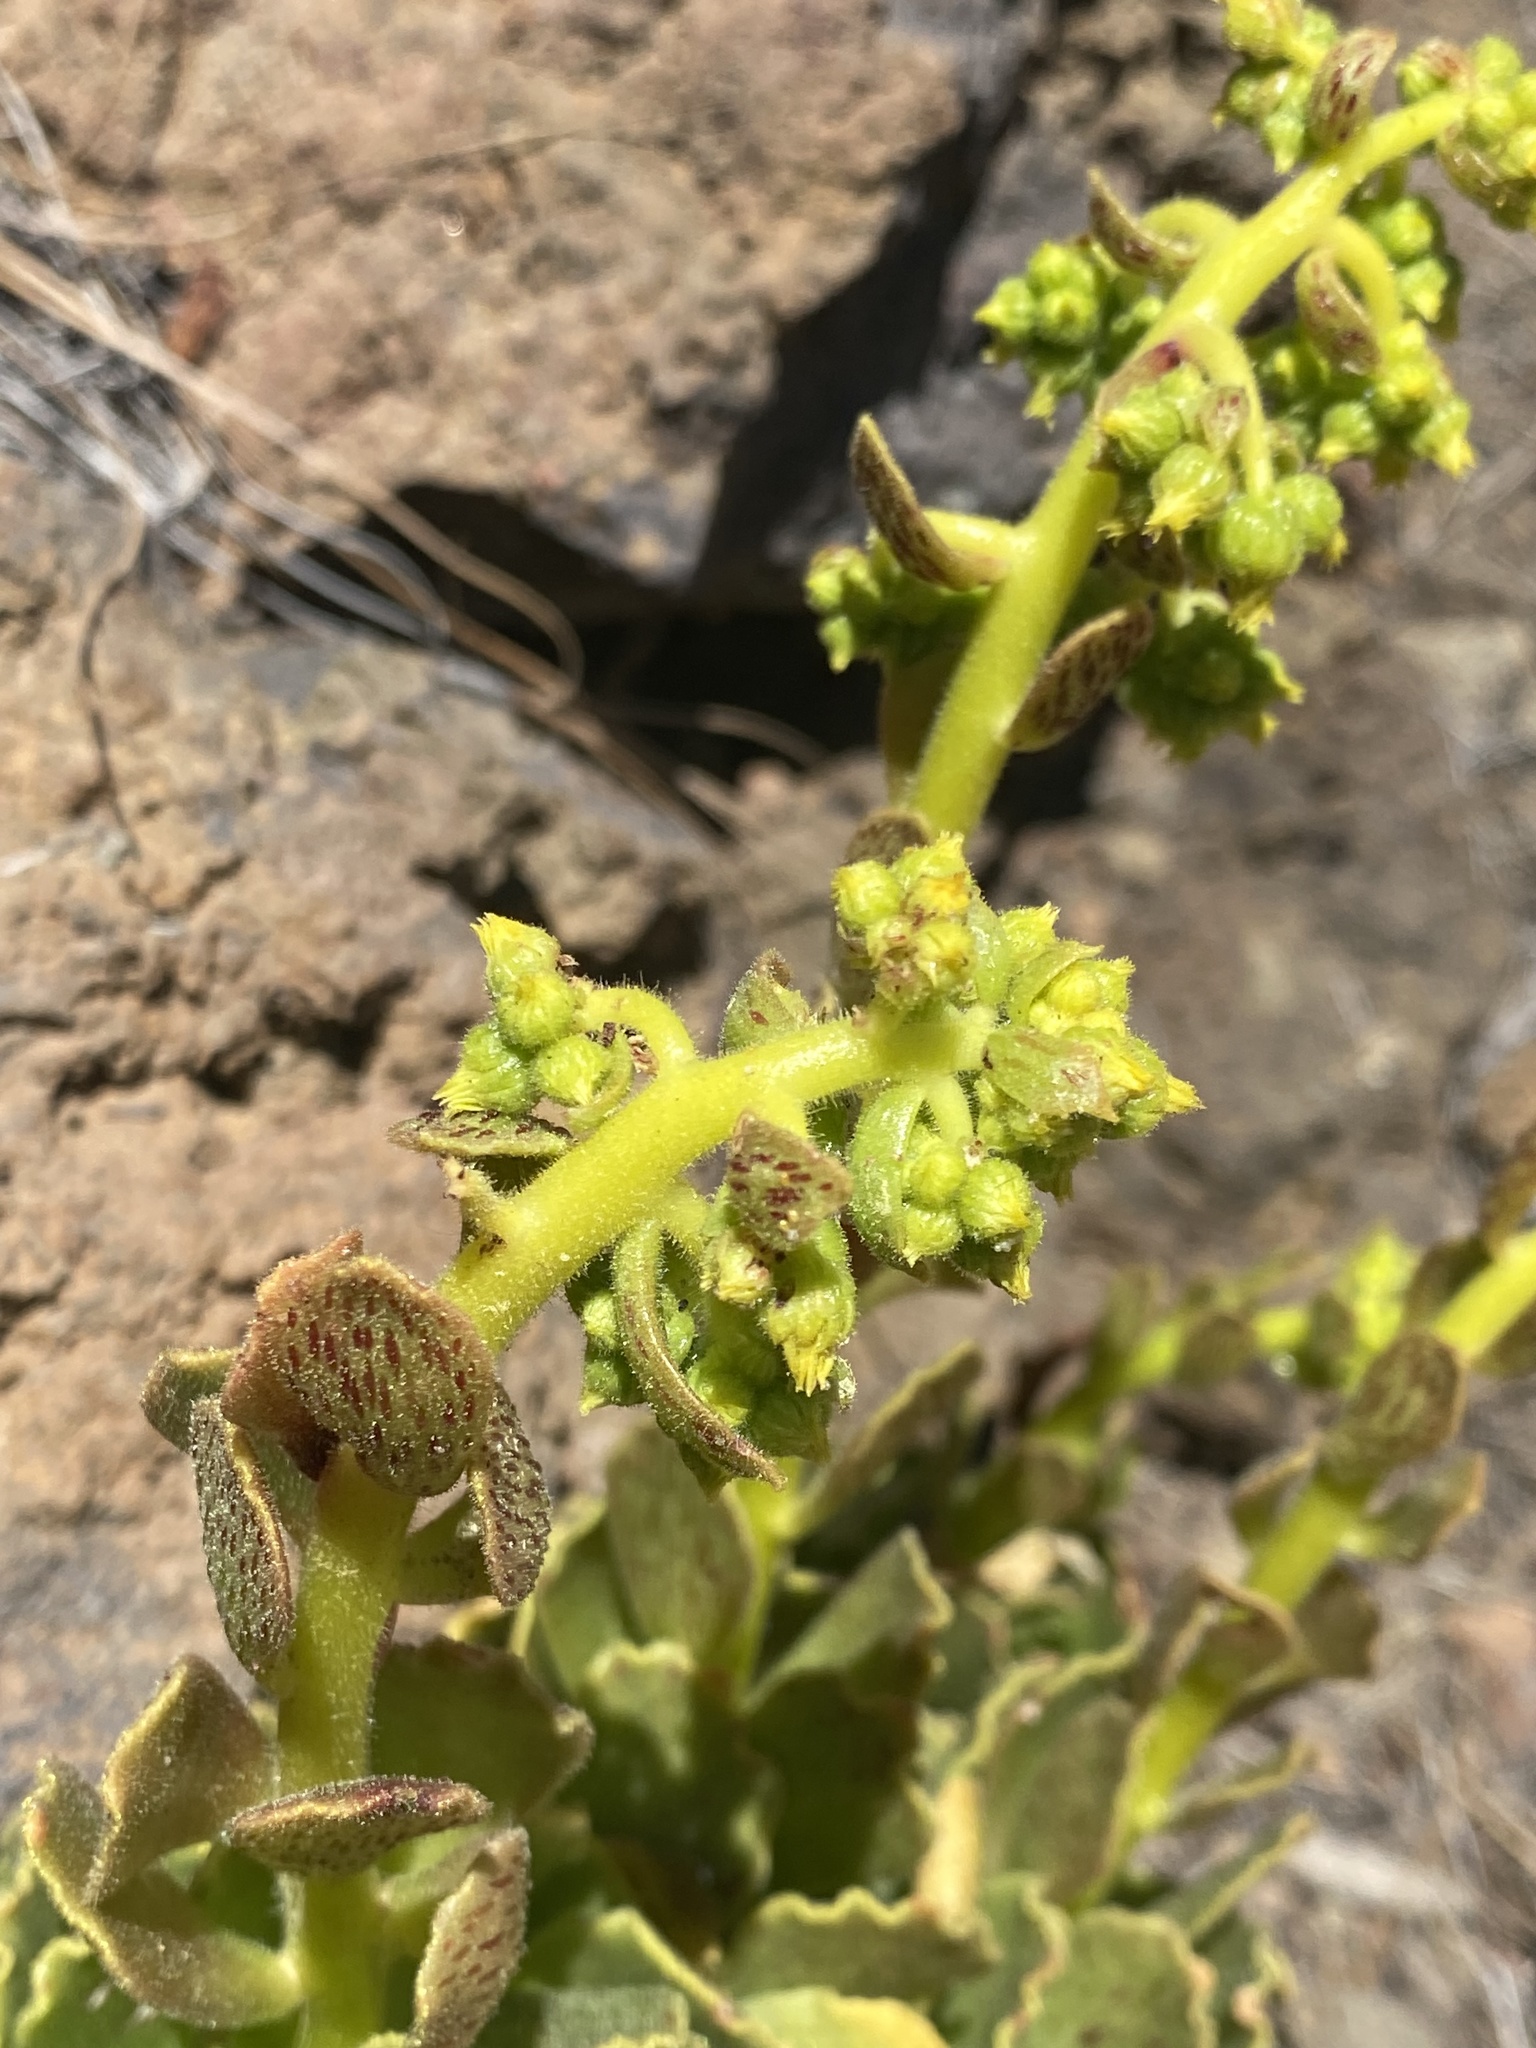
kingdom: Plantae
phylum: Tracheophyta
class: Magnoliopsida
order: Saxifragales
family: Crassulaceae
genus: Aeonium
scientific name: Aeonium smithii
